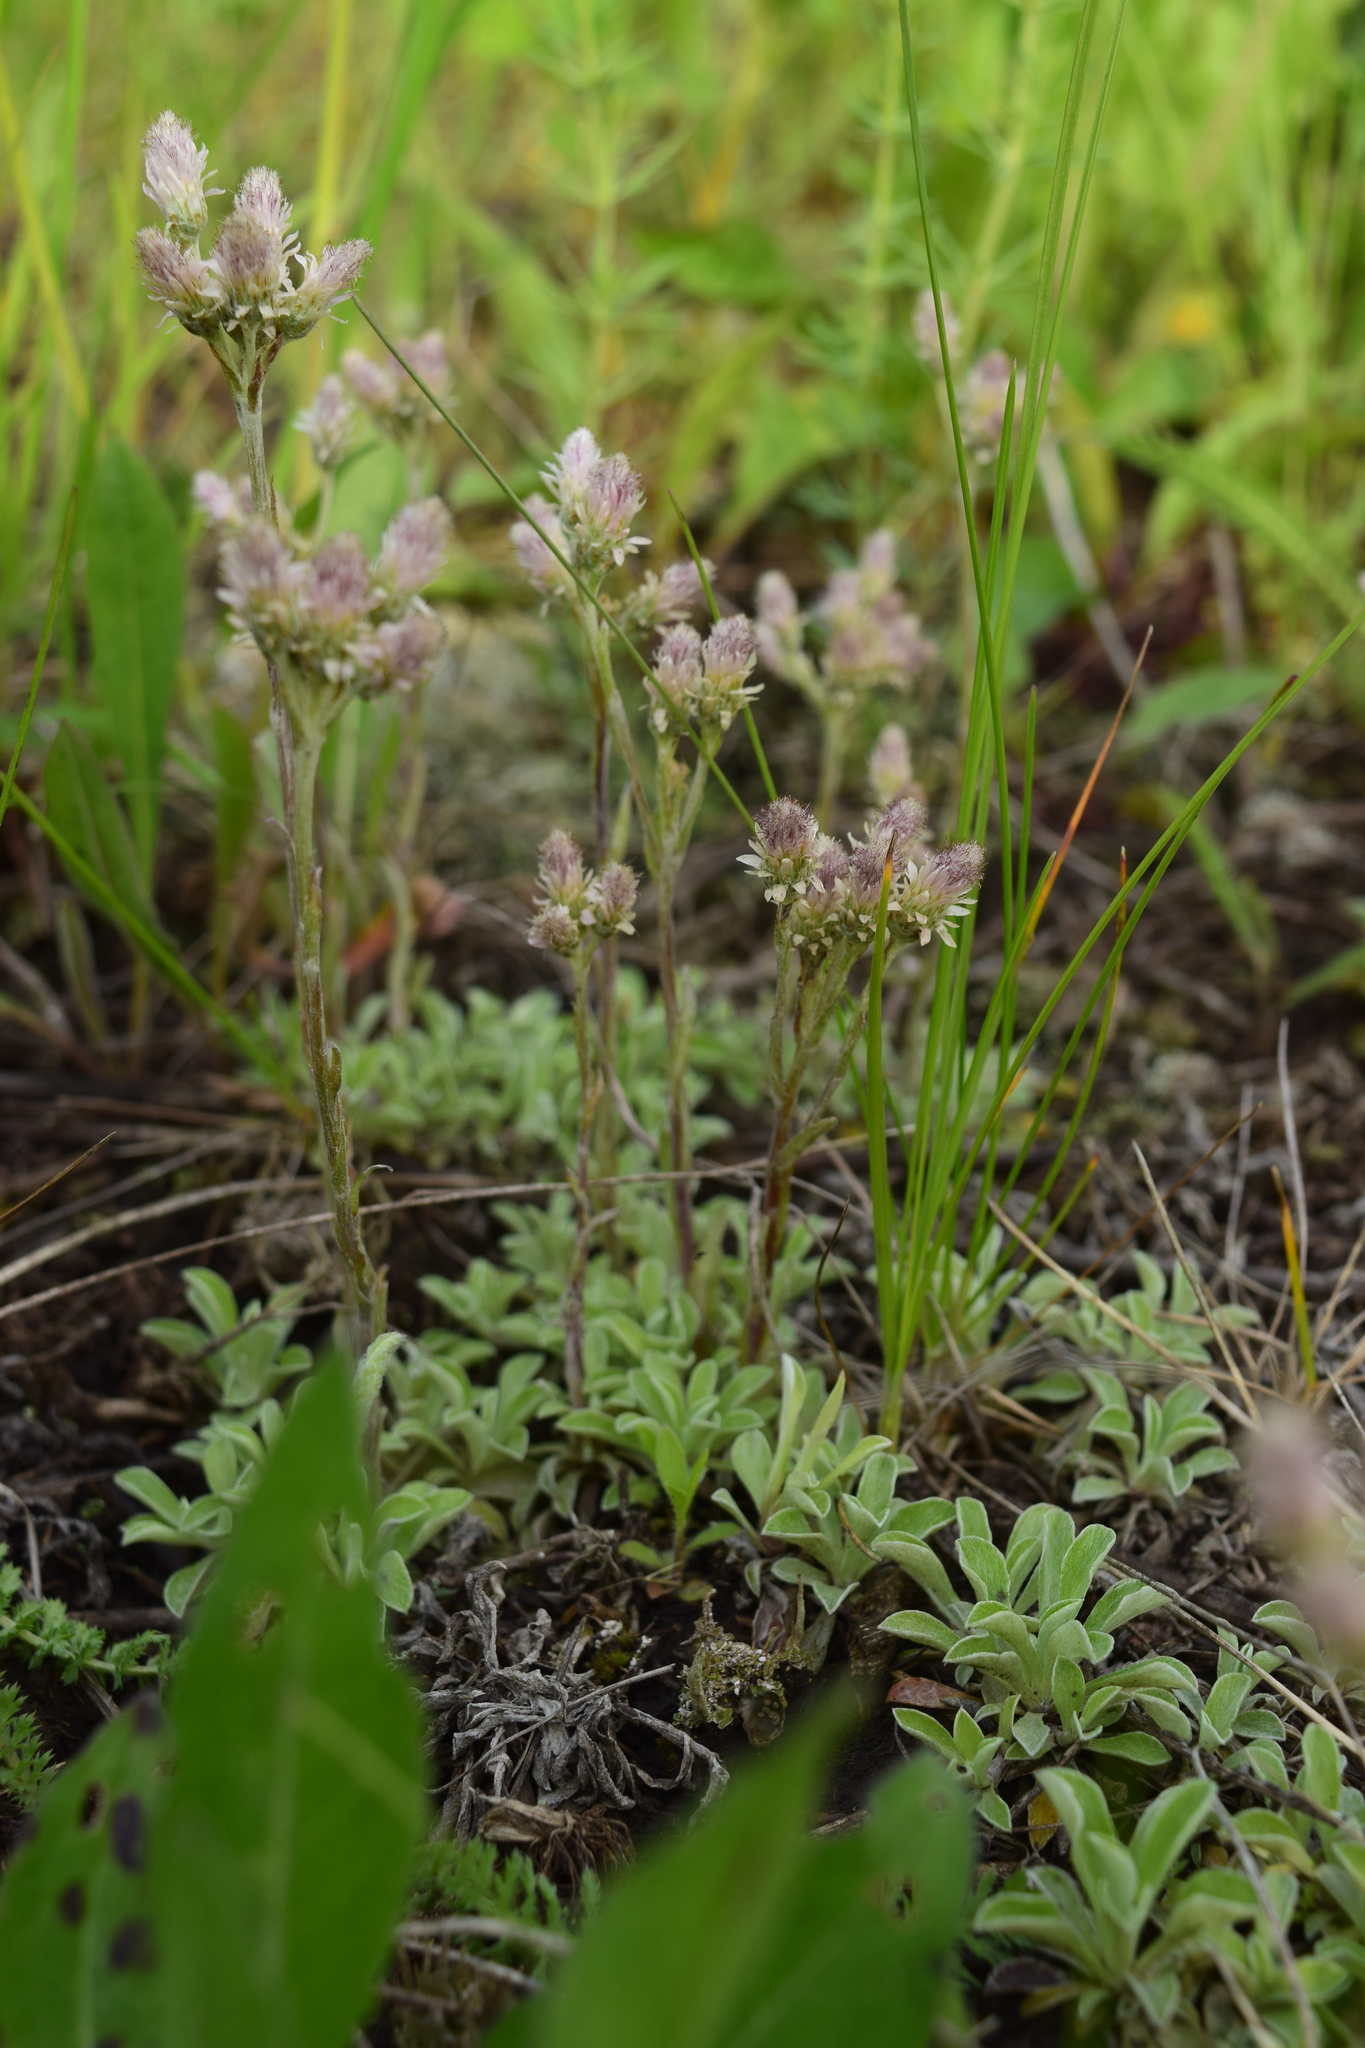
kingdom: Plantae
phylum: Tracheophyta
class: Magnoliopsida
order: Asterales
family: Asteraceae
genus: Antennaria
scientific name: Antennaria dioica
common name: Mountain everlasting
